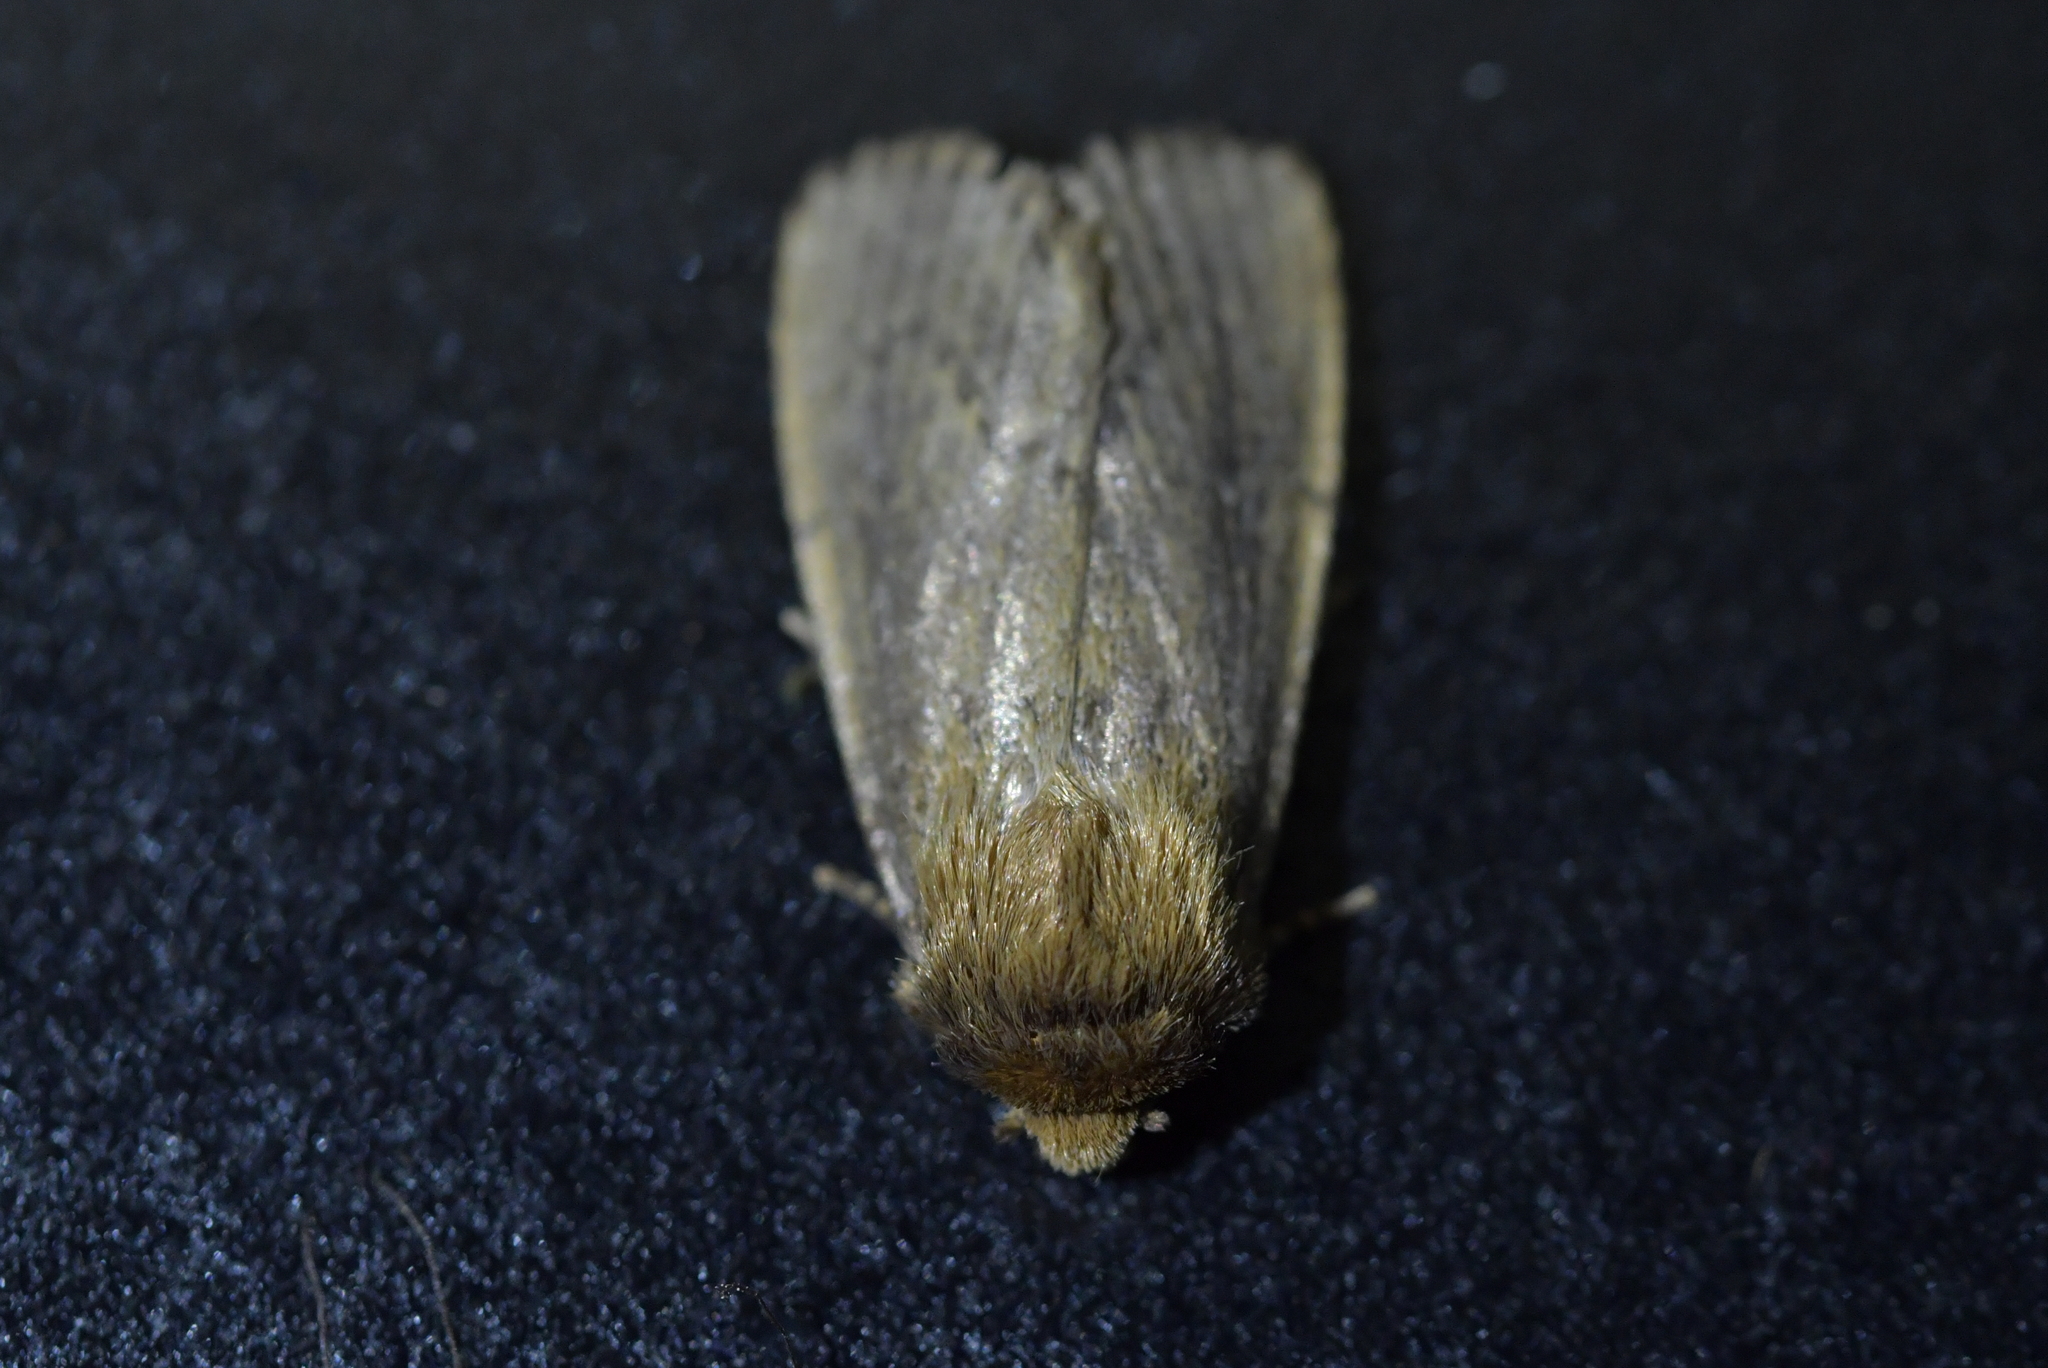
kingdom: Animalia
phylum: Arthropoda
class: Insecta
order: Lepidoptera
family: Noctuidae
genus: Bityla
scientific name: Bityla defigurata
